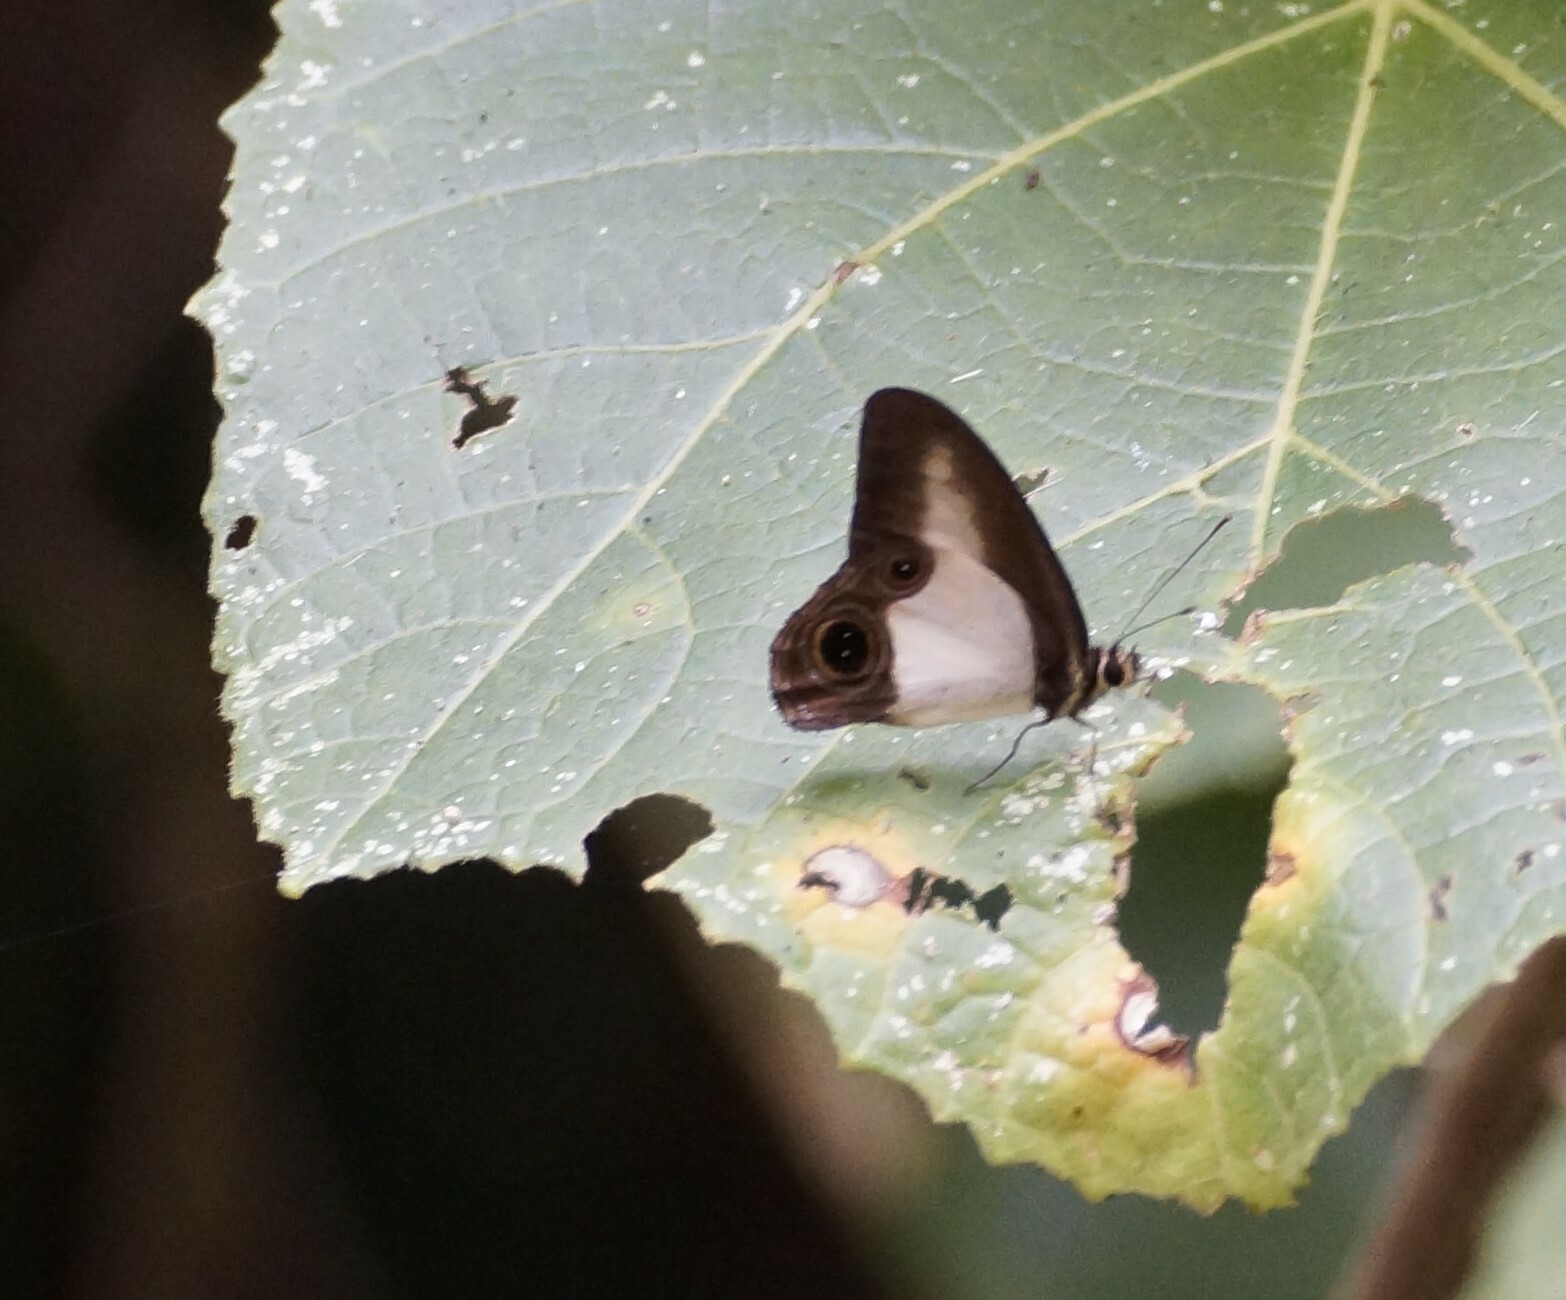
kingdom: Animalia
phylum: Arthropoda
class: Insecta
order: Lepidoptera
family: Nymphalidae
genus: Hypocysta
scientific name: Hypocysta angustata
